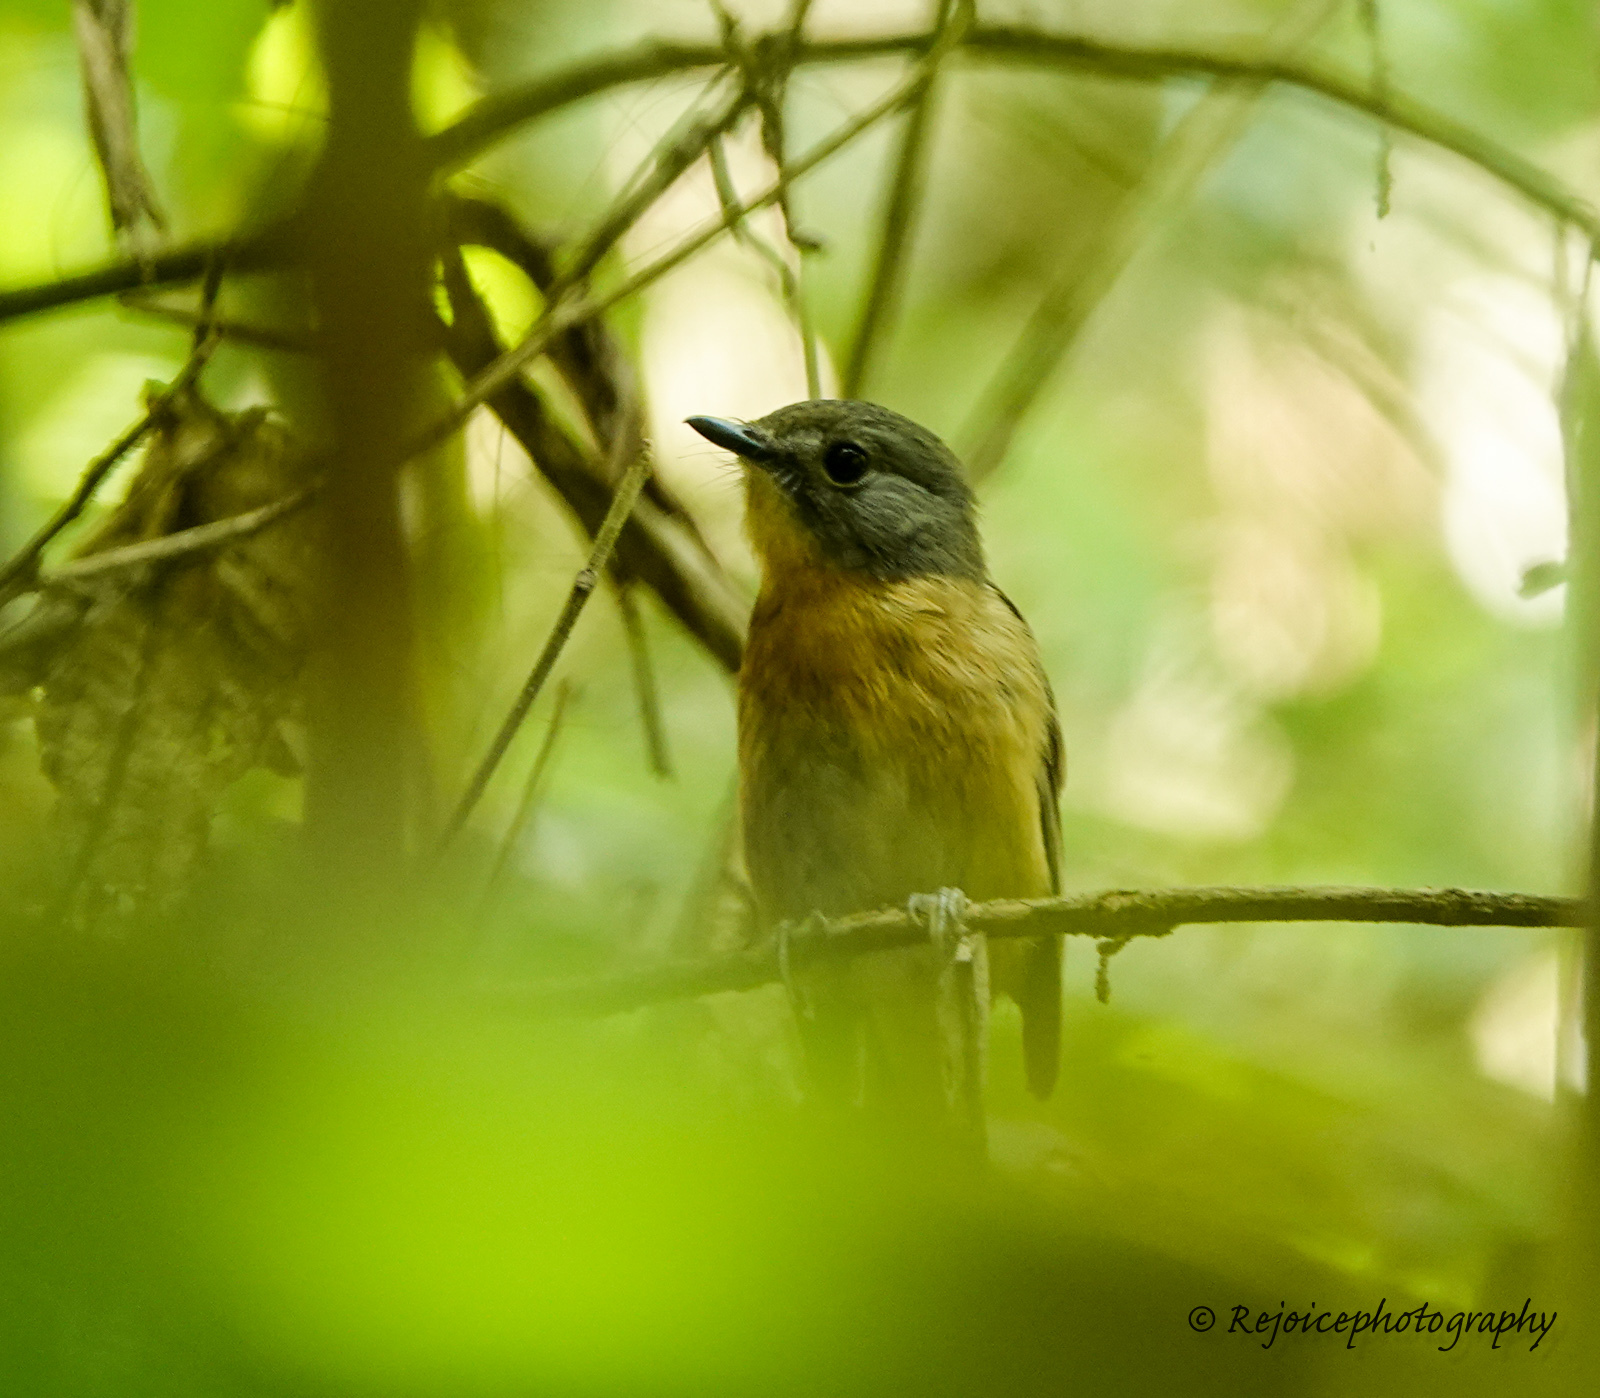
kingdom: Animalia
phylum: Chordata
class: Aves
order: Passeriformes
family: Muscicapidae
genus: Cyornis
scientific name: Cyornis poliogenys
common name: Pale-chinned blue flycatcher
